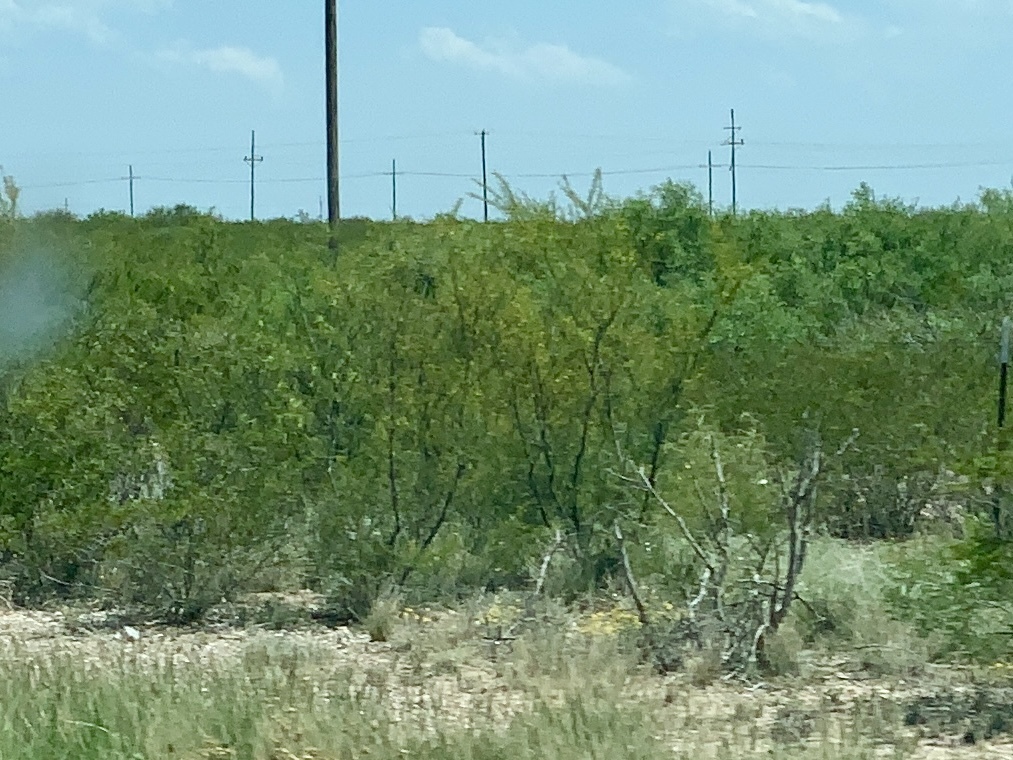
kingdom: Plantae
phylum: Tracheophyta
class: Magnoliopsida
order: Zygophyllales
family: Zygophyllaceae
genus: Larrea
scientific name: Larrea tridentata
